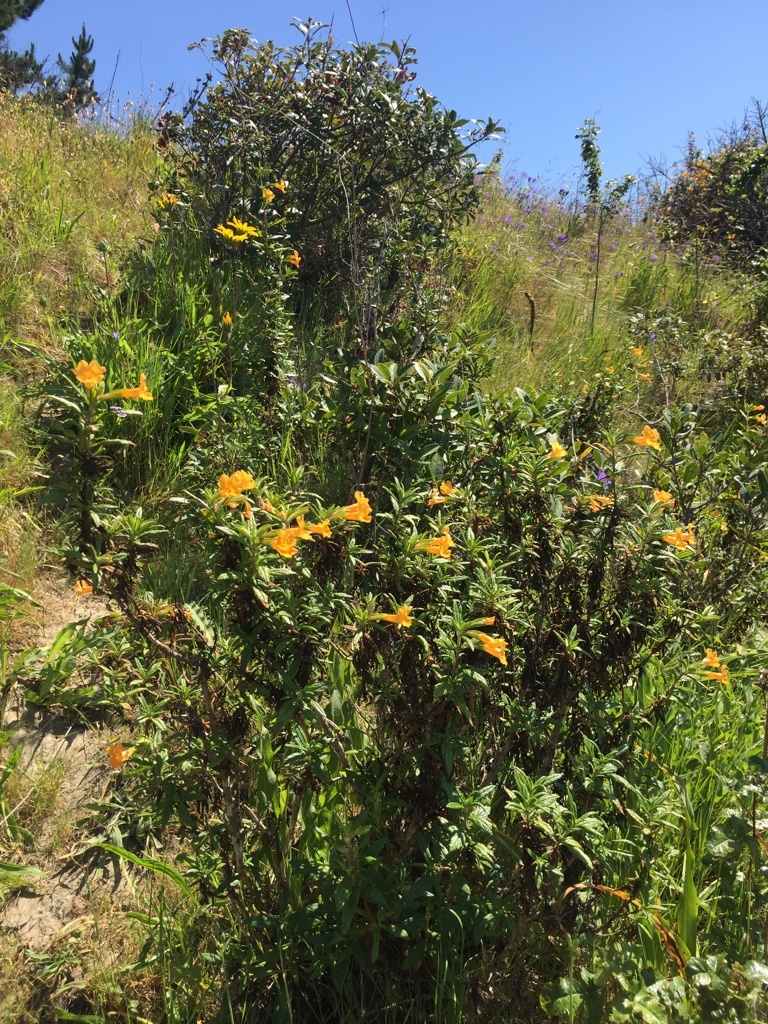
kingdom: Plantae
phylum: Tracheophyta
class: Magnoliopsida
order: Lamiales
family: Phrymaceae
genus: Diplacus
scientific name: Diplacus aurantiacus
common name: Bush monkey-flower
